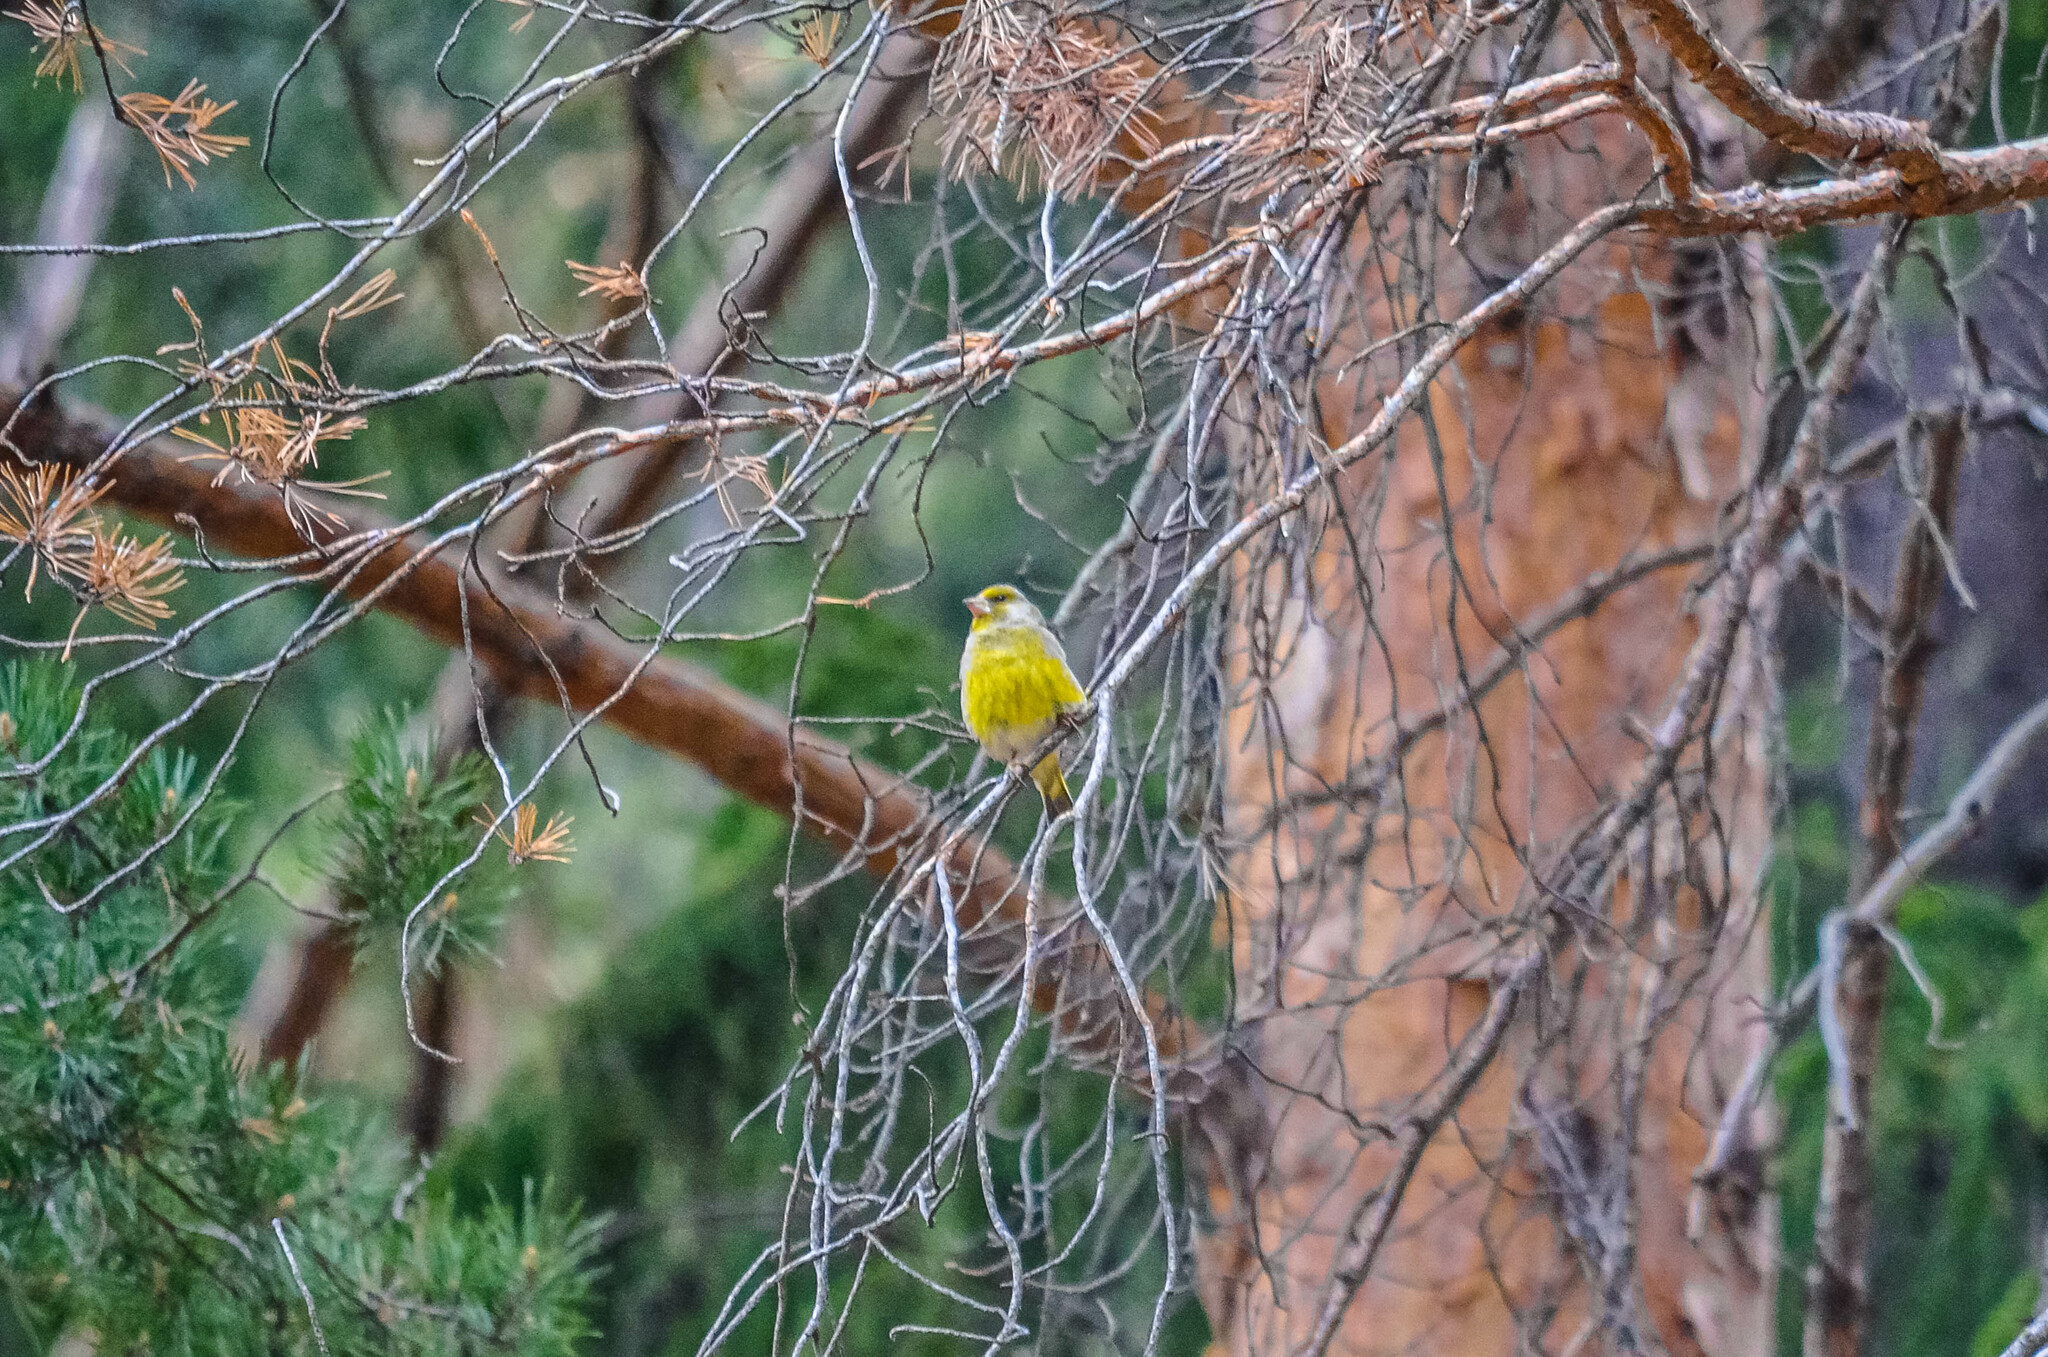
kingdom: Plantae
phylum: Tracheophyta
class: Liliopsida
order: Poales
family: Poaceae
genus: Chloris
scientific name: Chloris chloris
